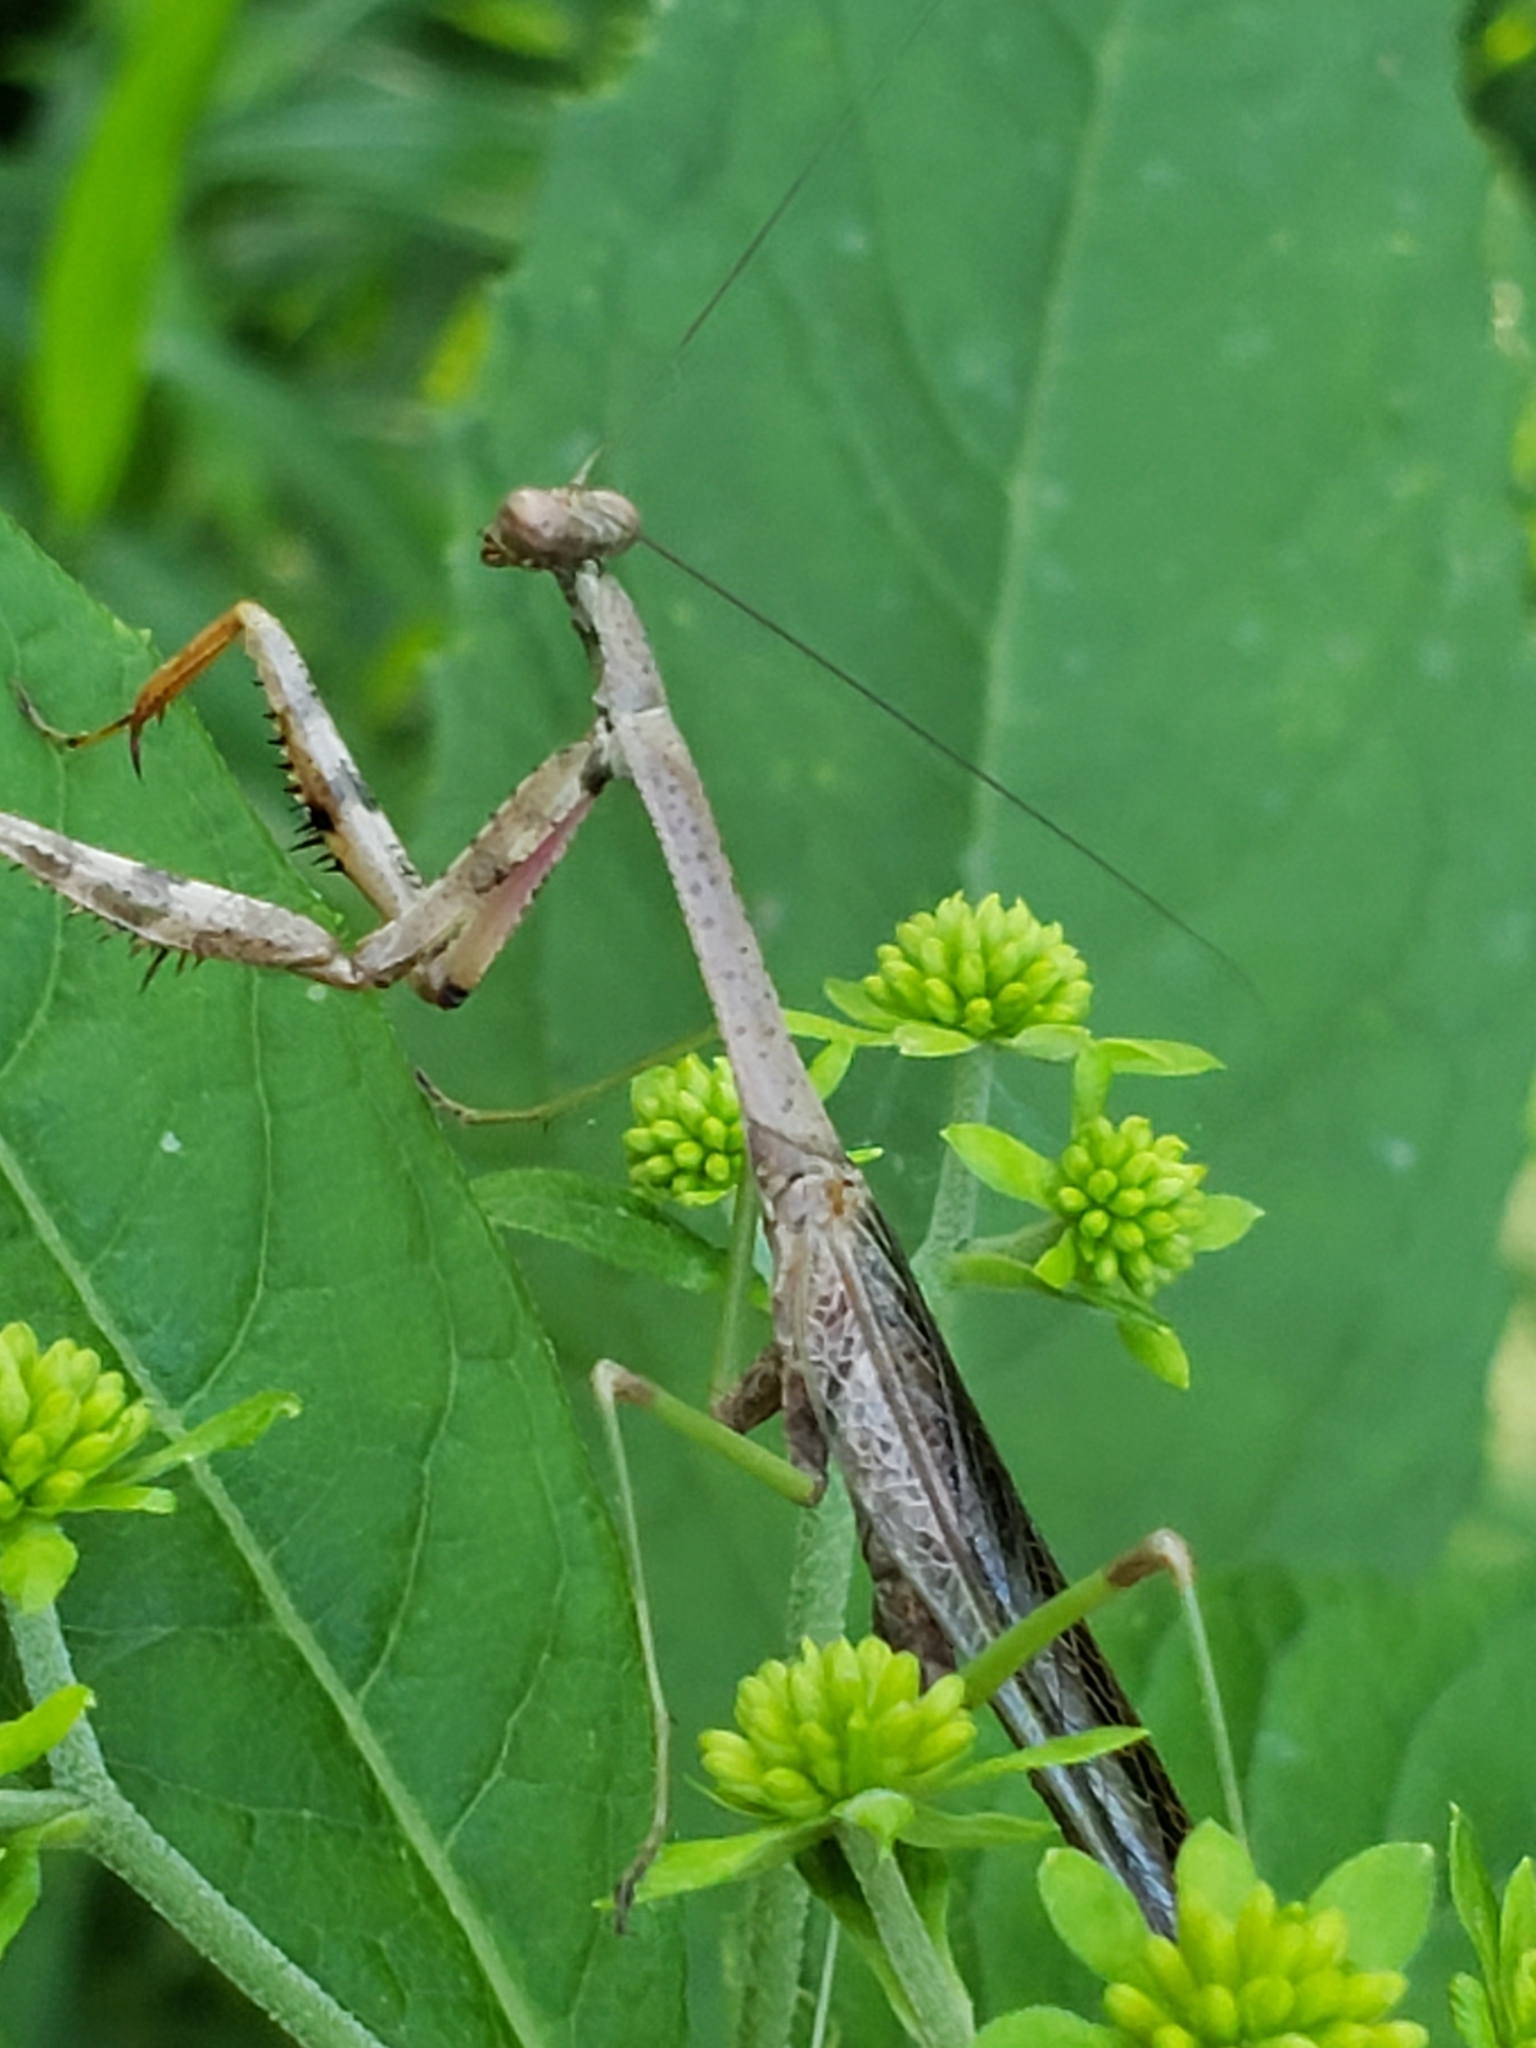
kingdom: Animalia
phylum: Arthropoda
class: Insecta
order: Mantodea
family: Mantidae
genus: Stagmomantis
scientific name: Stagmomantis carolina
